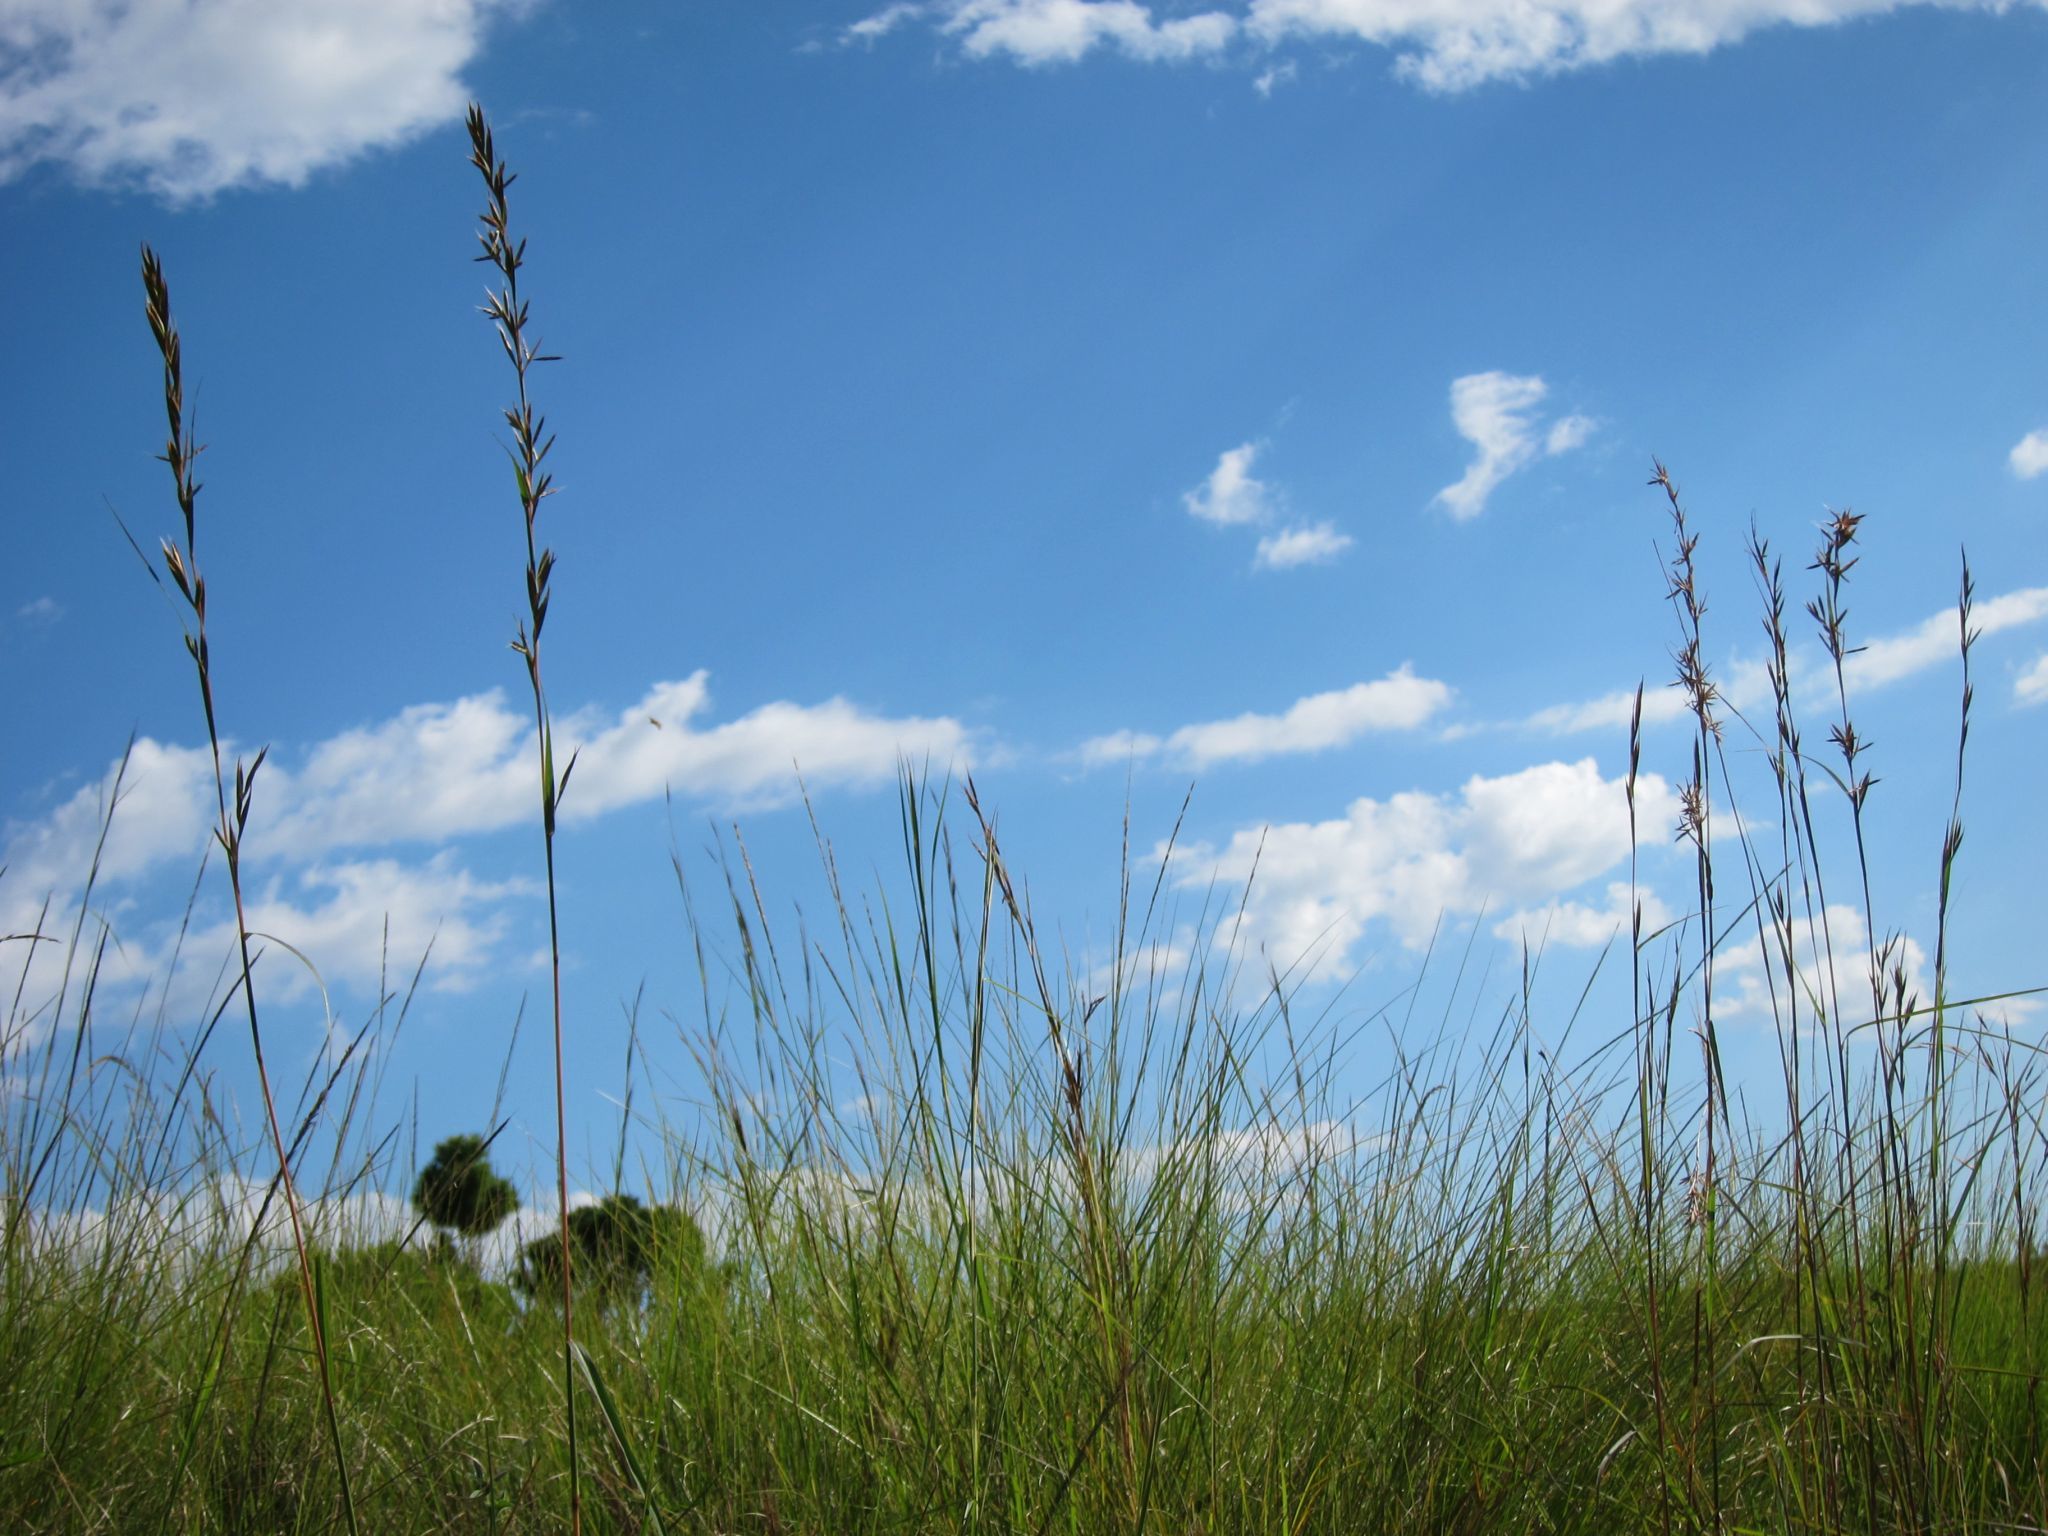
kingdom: Plantae
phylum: Tracheophyta
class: Liliopsida
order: Poales
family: Poaceae
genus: Cymbopogon
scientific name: Cymbopogon caesius
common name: Kachi grass
